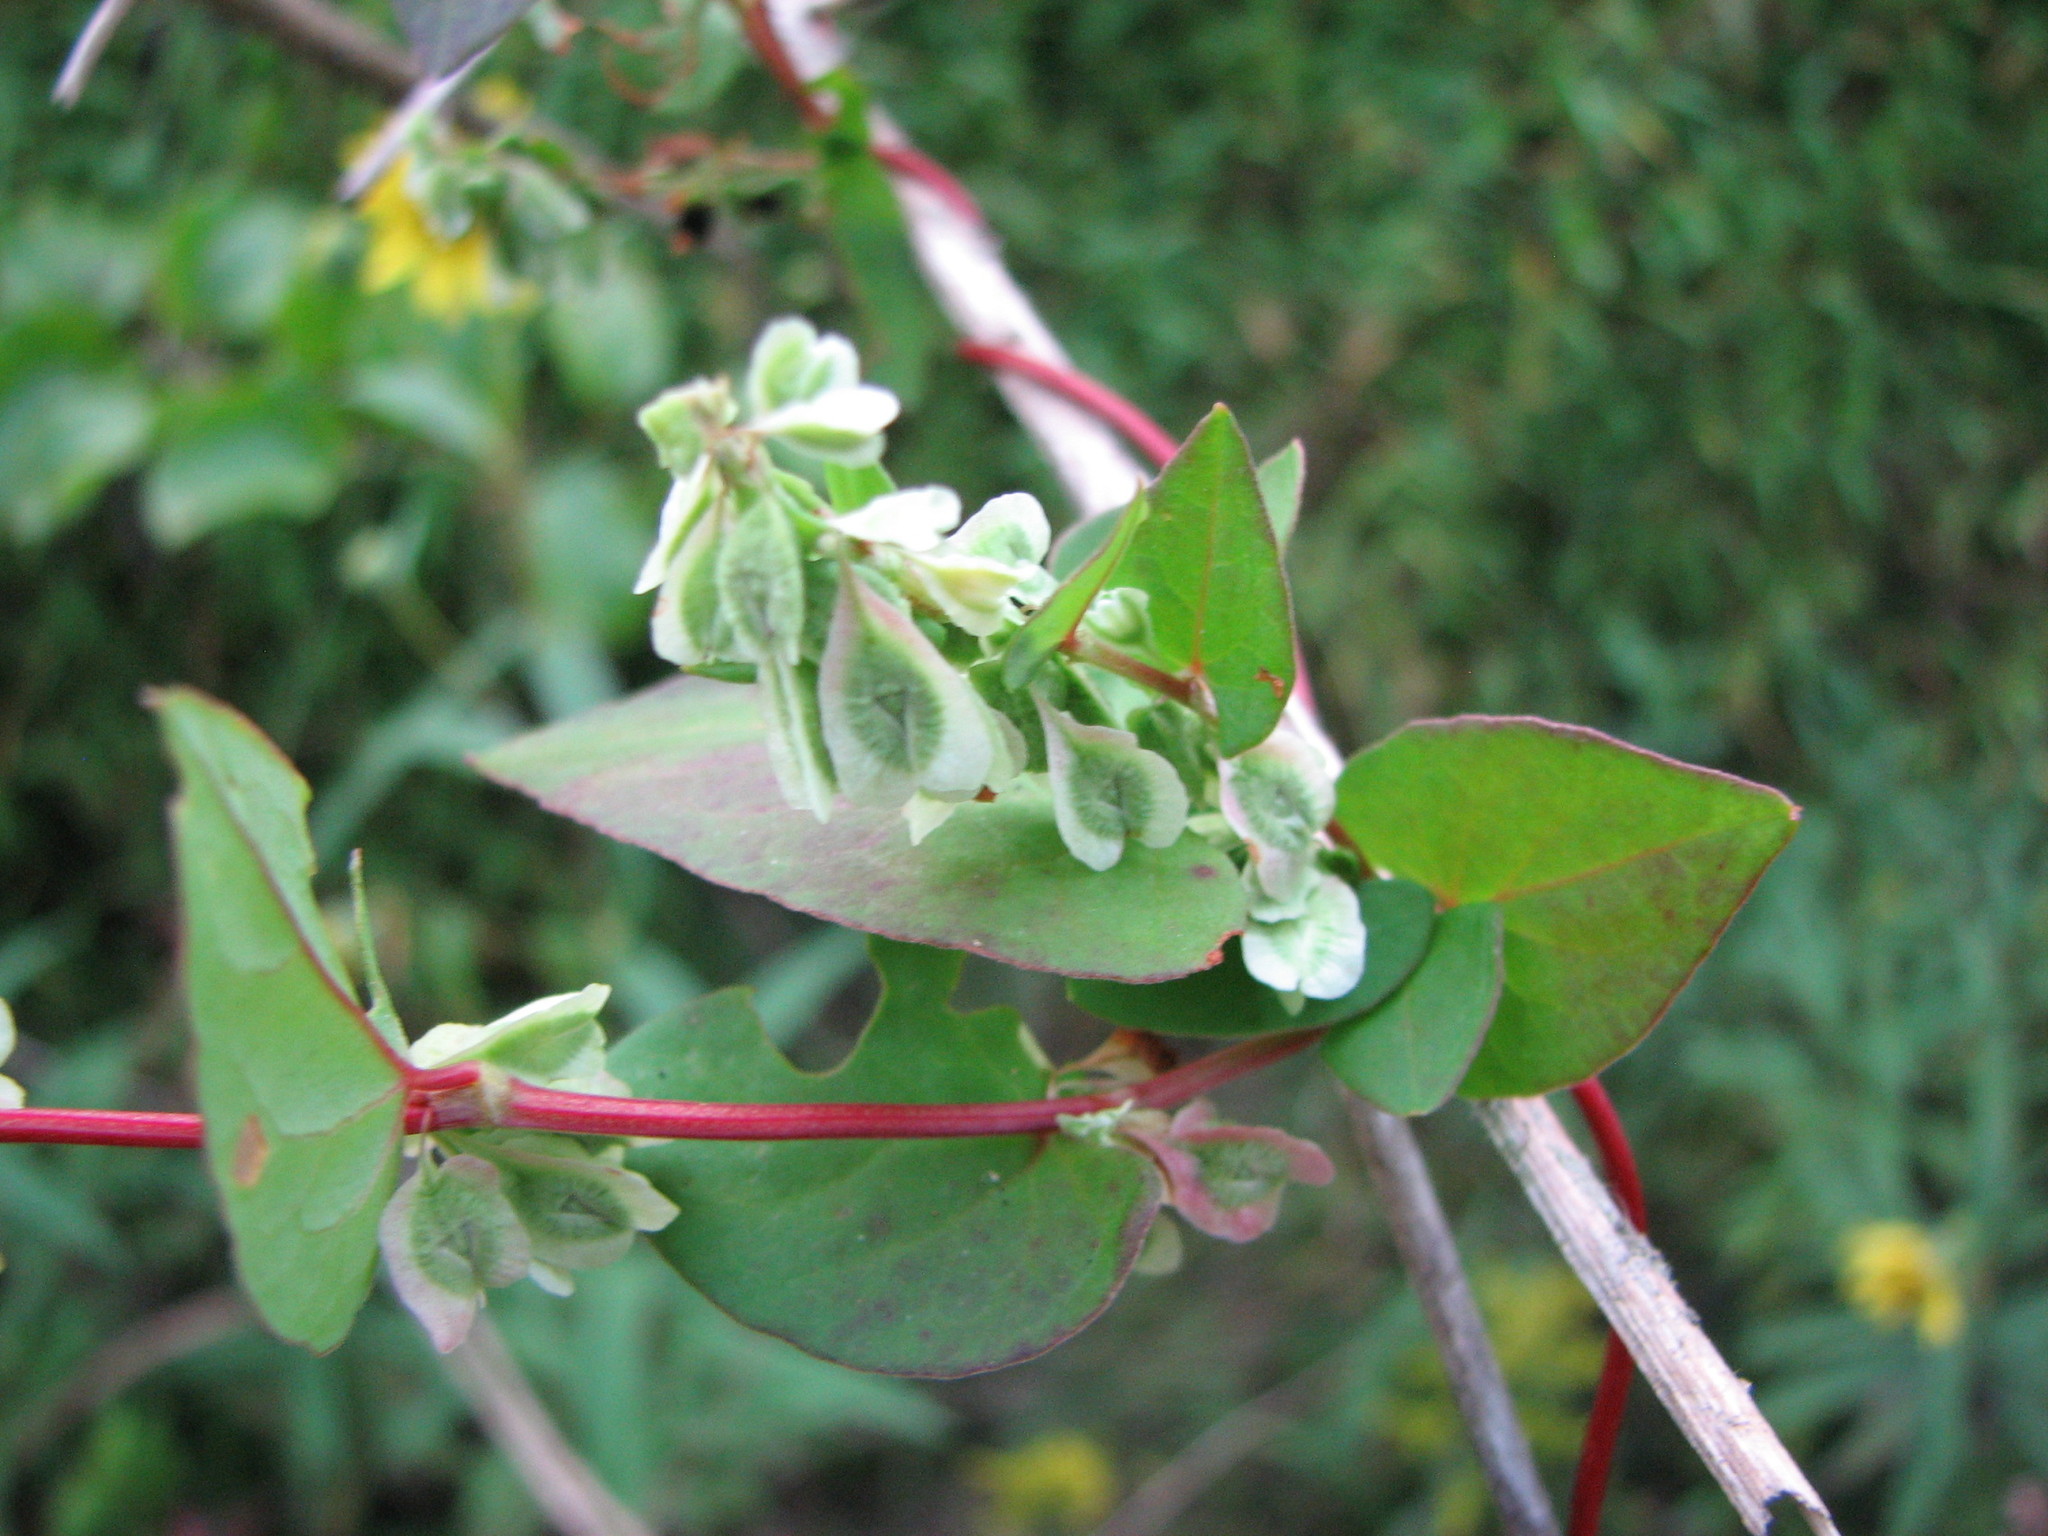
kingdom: Plantae
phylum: Tracheophyta
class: Magnoliopsida
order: Caryophyllales
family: Polygonaceae
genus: Fallopia
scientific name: Fallopia scandens
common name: Climbing false buckwheat
